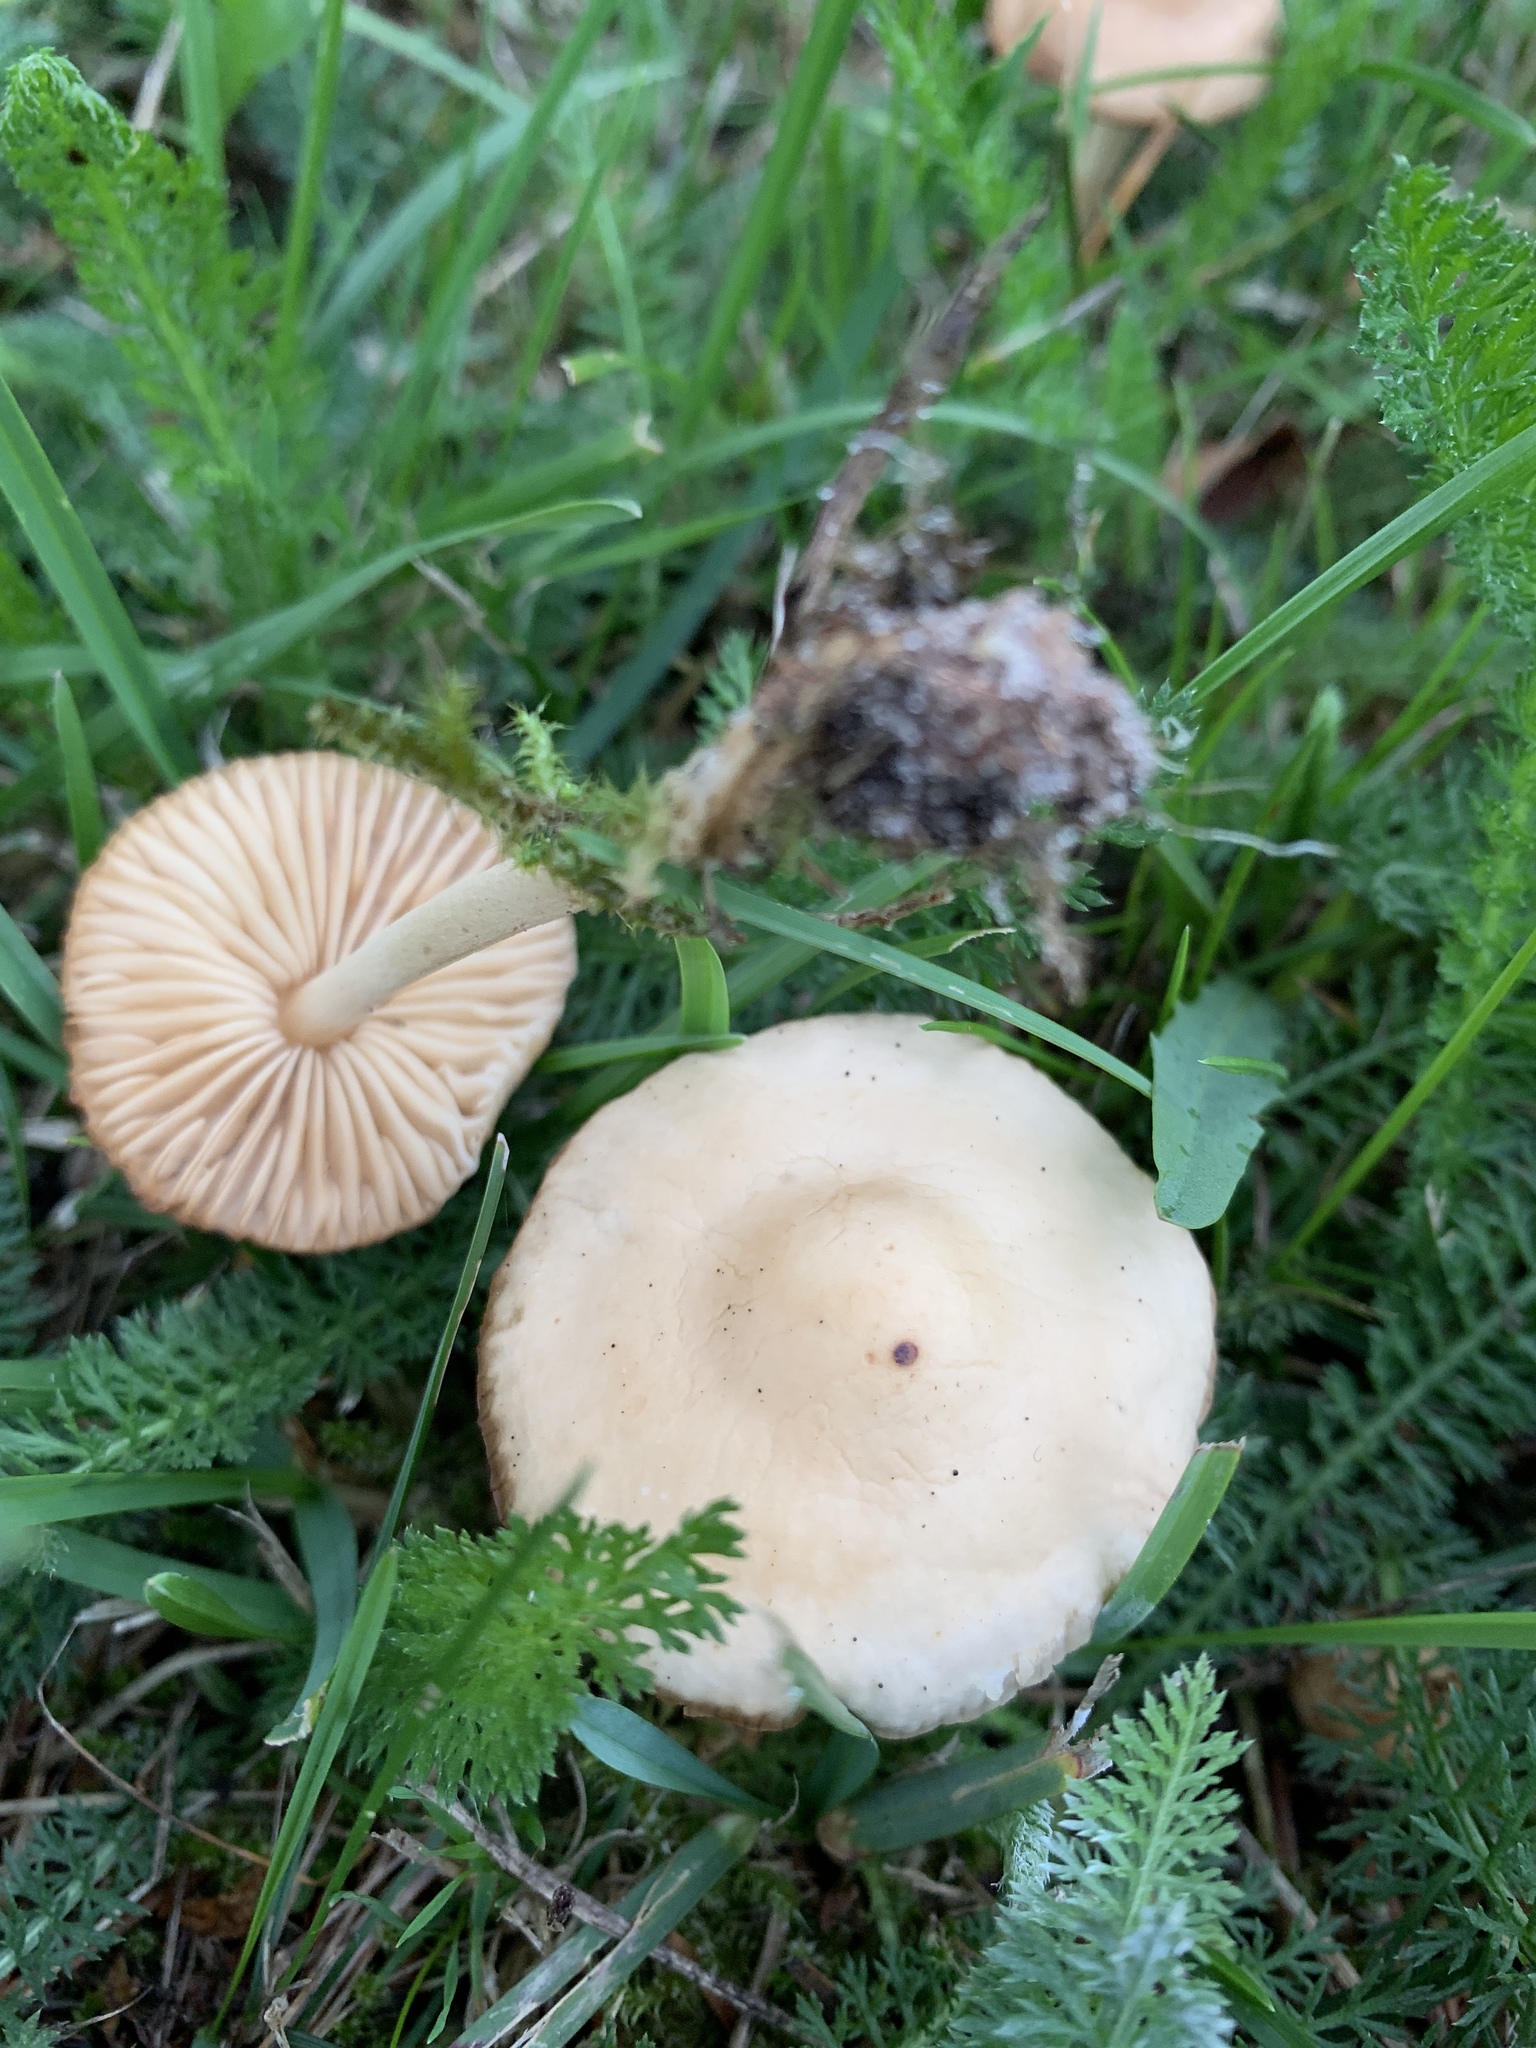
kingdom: Fungi
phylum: Basidiomycota
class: Agaricomycetes
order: Agaricales
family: Marasmiaceae
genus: Marasmius
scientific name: Marasmius oreades
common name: Fairy ring champignon
